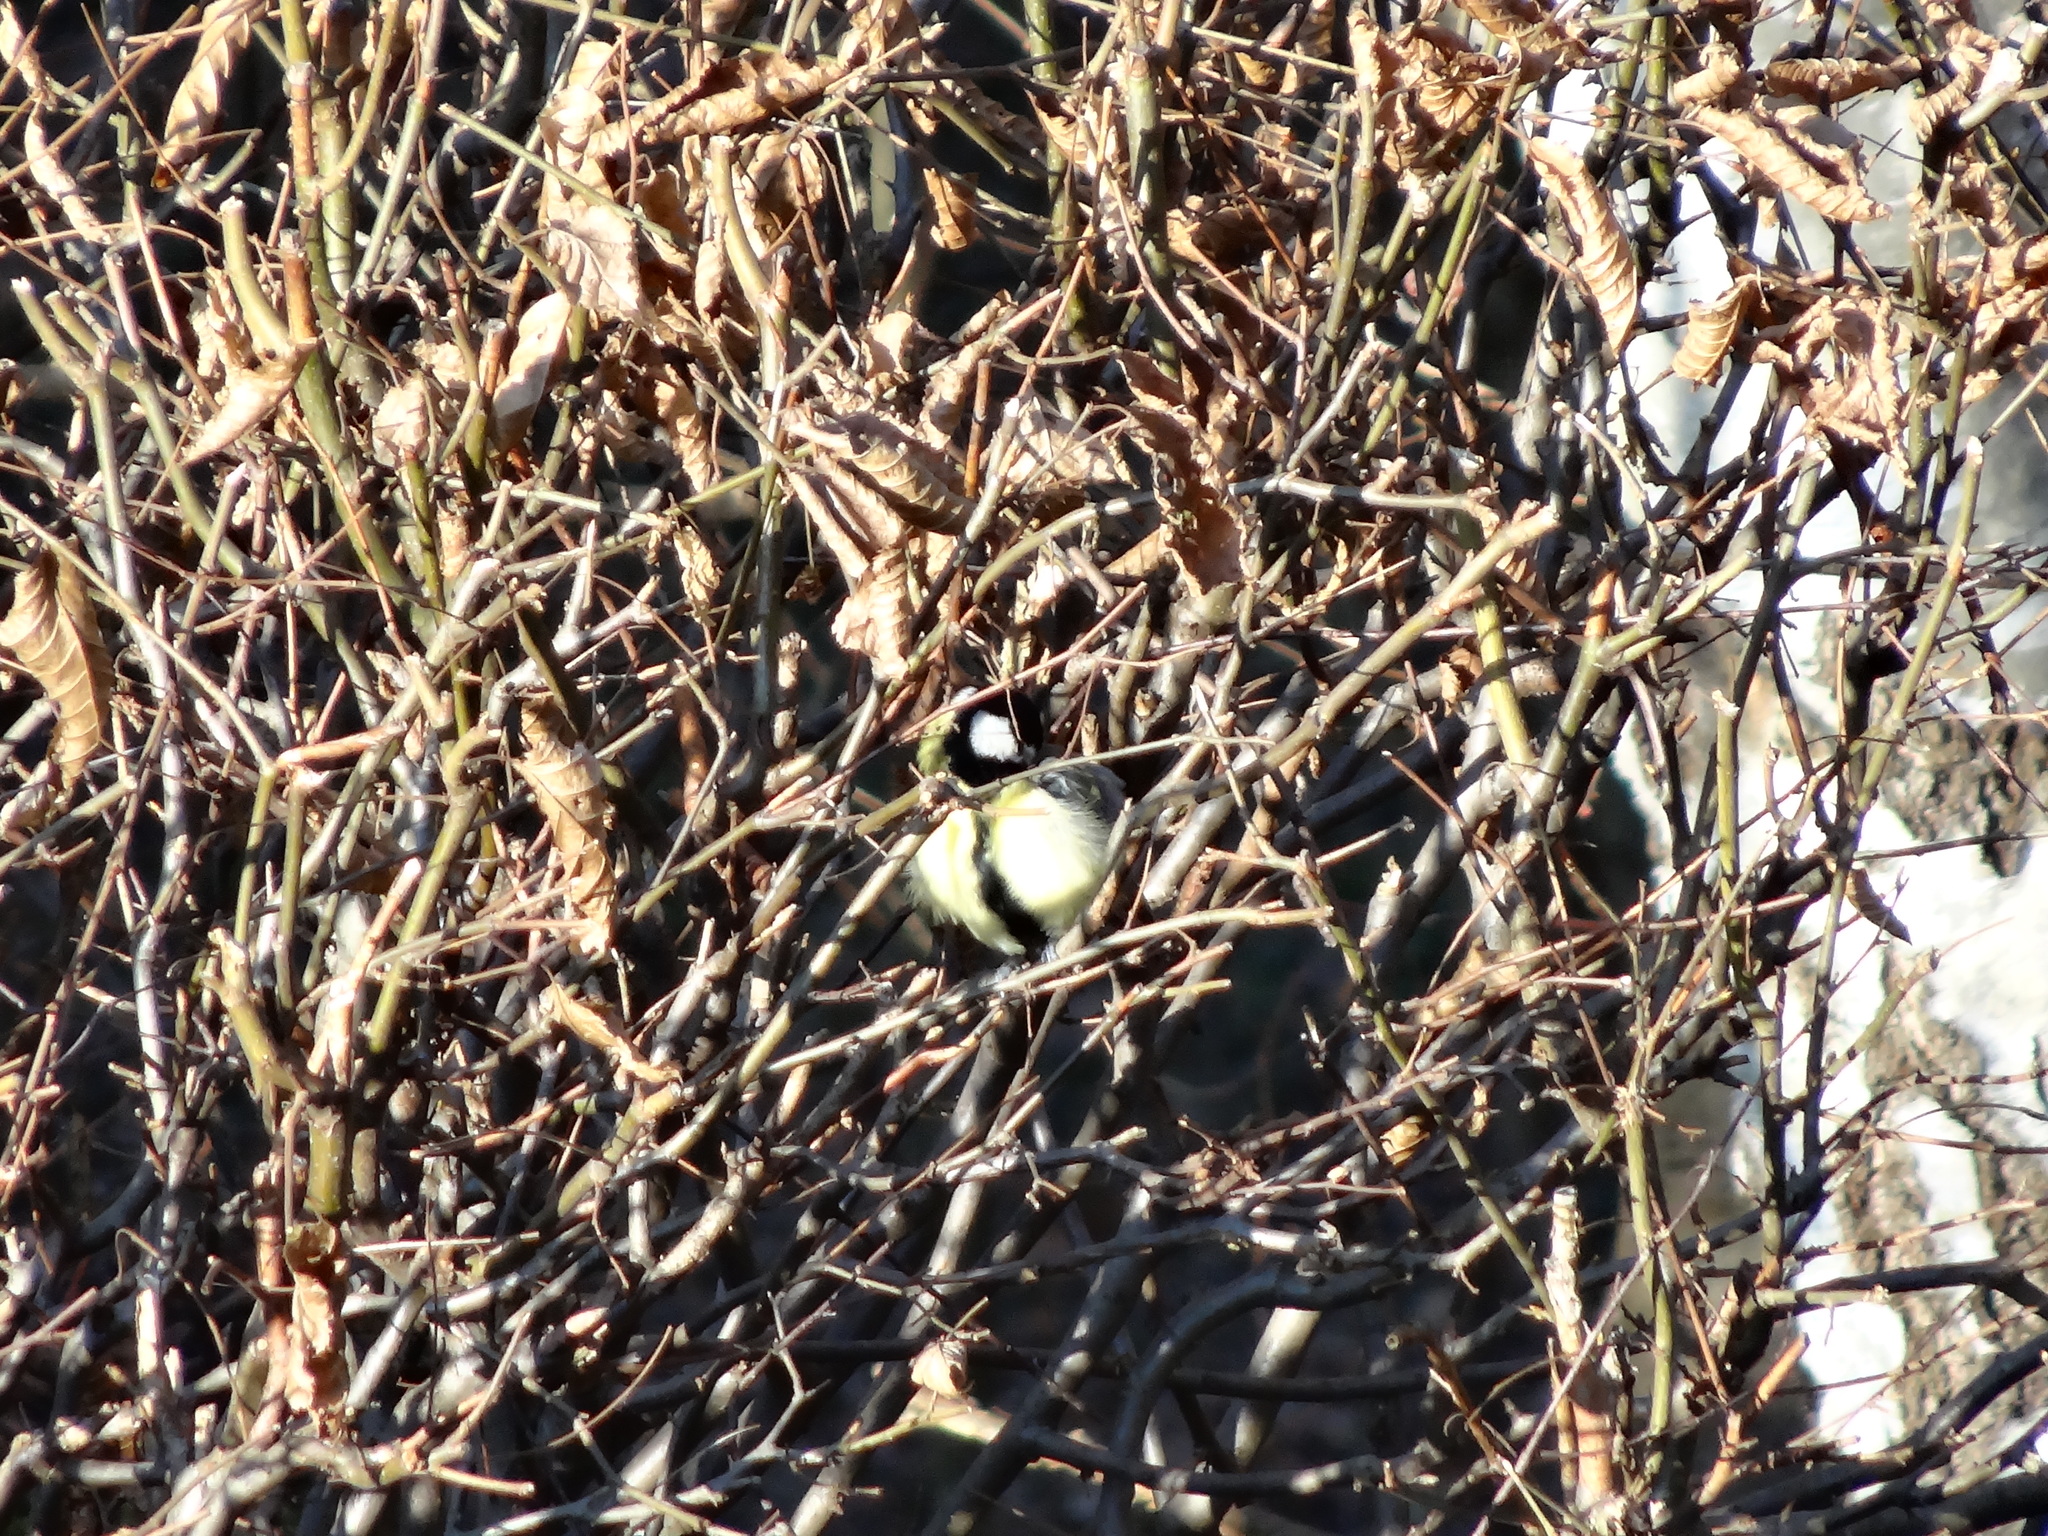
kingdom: Animalia
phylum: Chordata
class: Aves
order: Passeriformes
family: Paridae
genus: Parus
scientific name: Parus major
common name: Great tit
